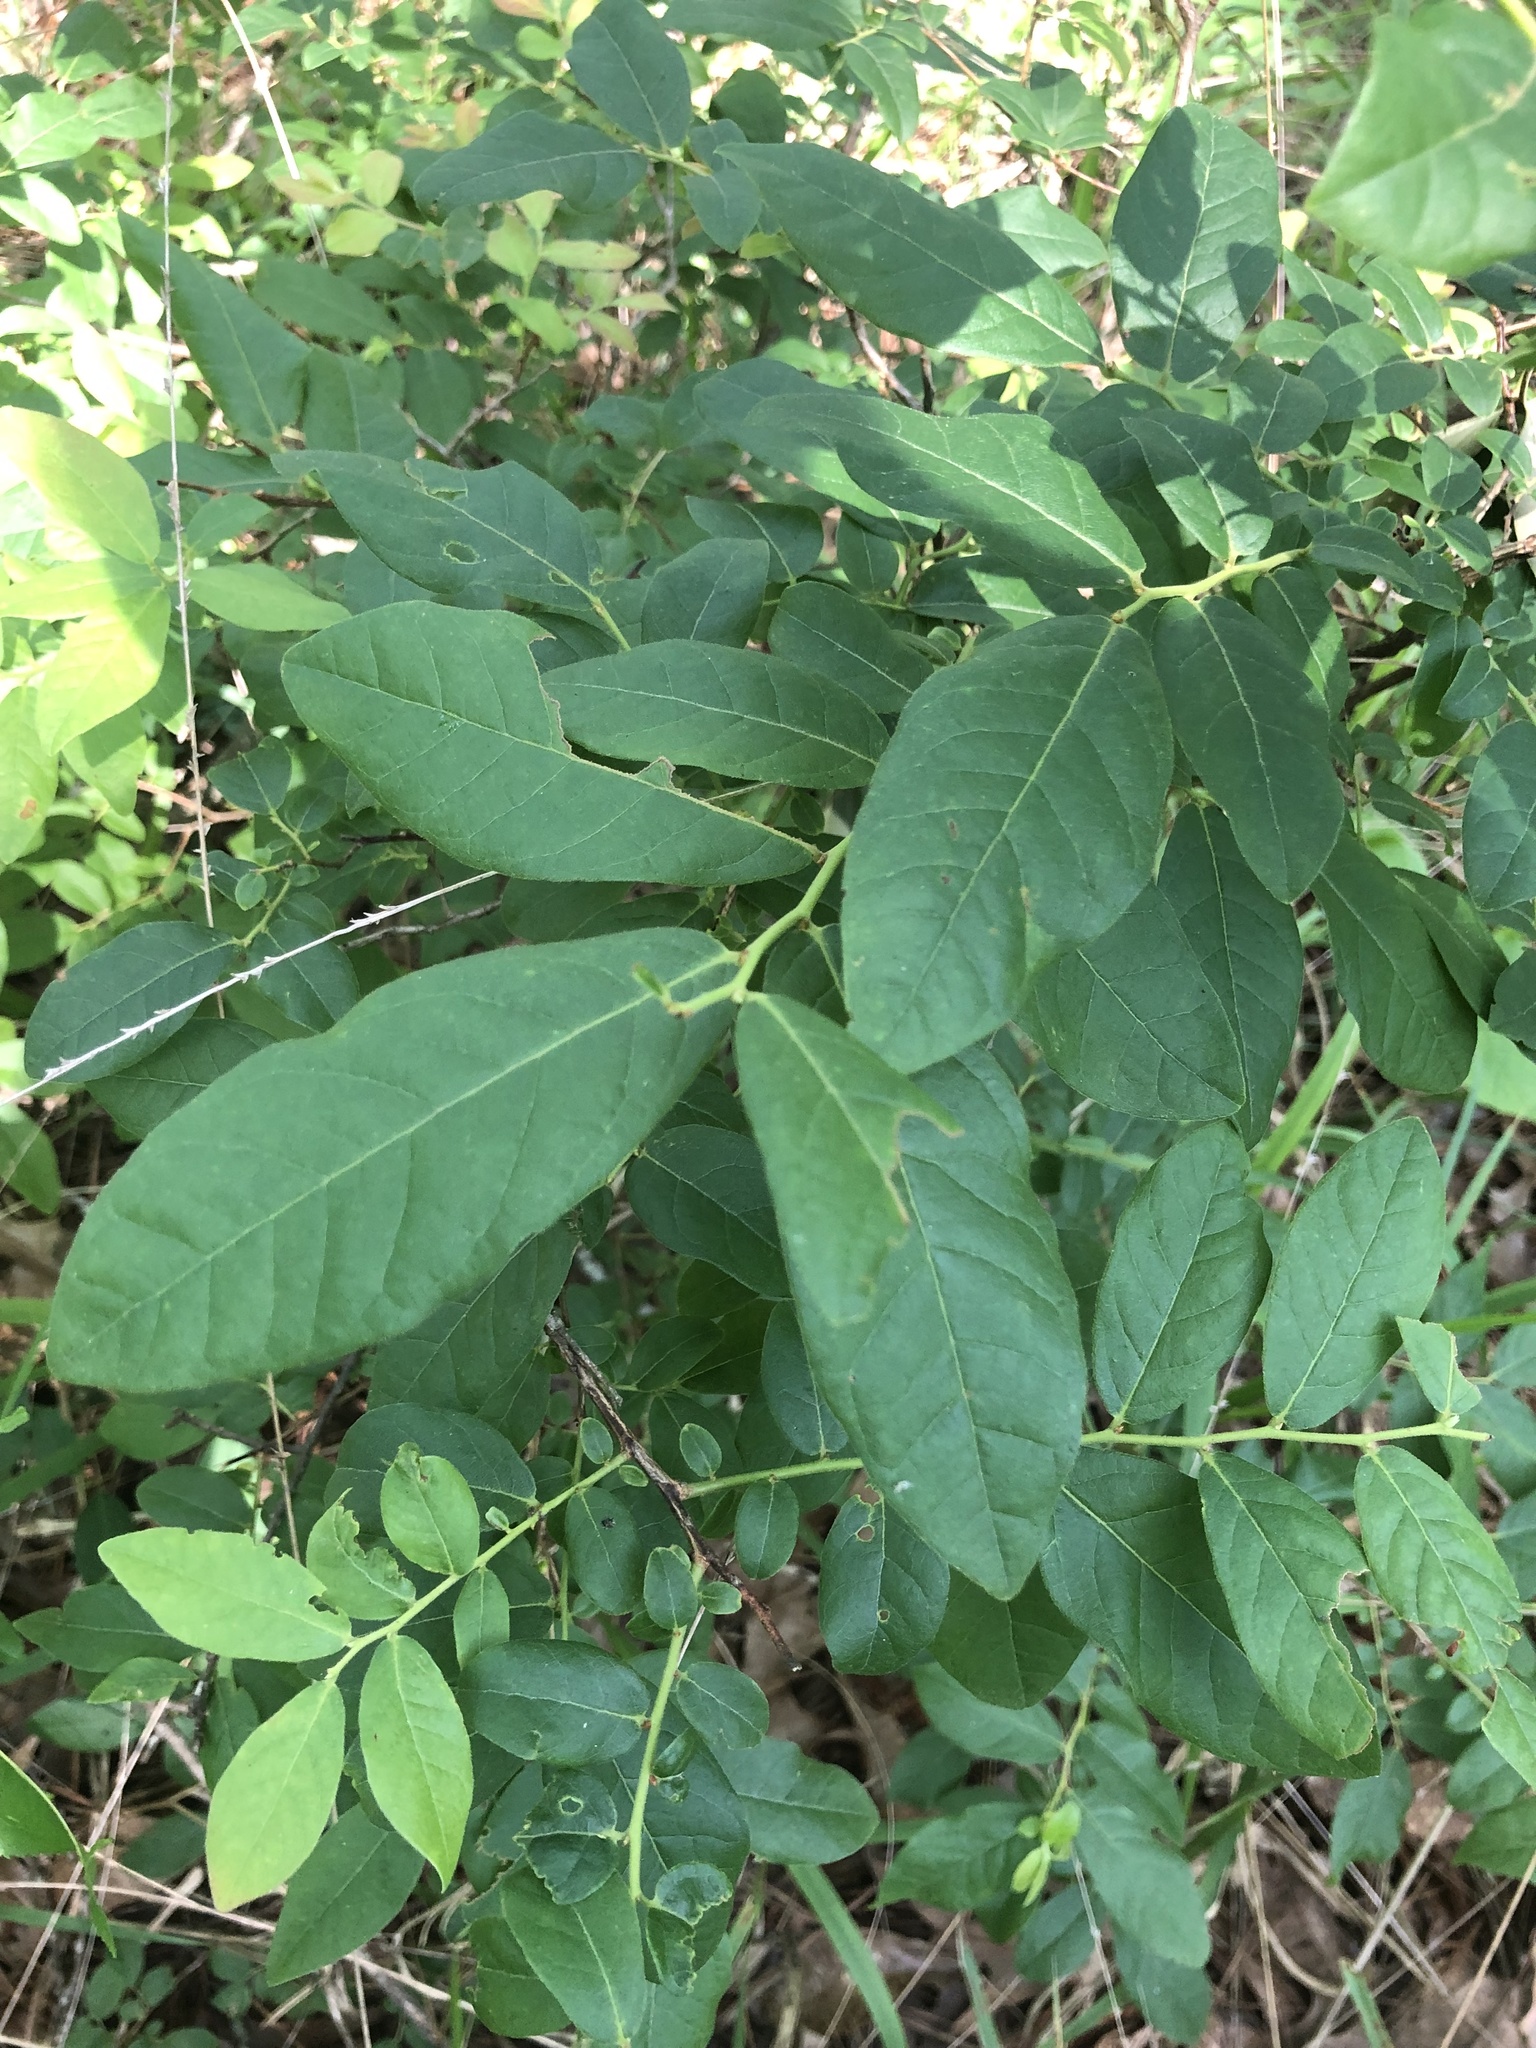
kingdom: Plantae
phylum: Tracheophyta
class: Magnoliopsida
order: Ericales
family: Ericaceae
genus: Vaccinium
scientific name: Vaccinium stamineum
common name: Deerberry
